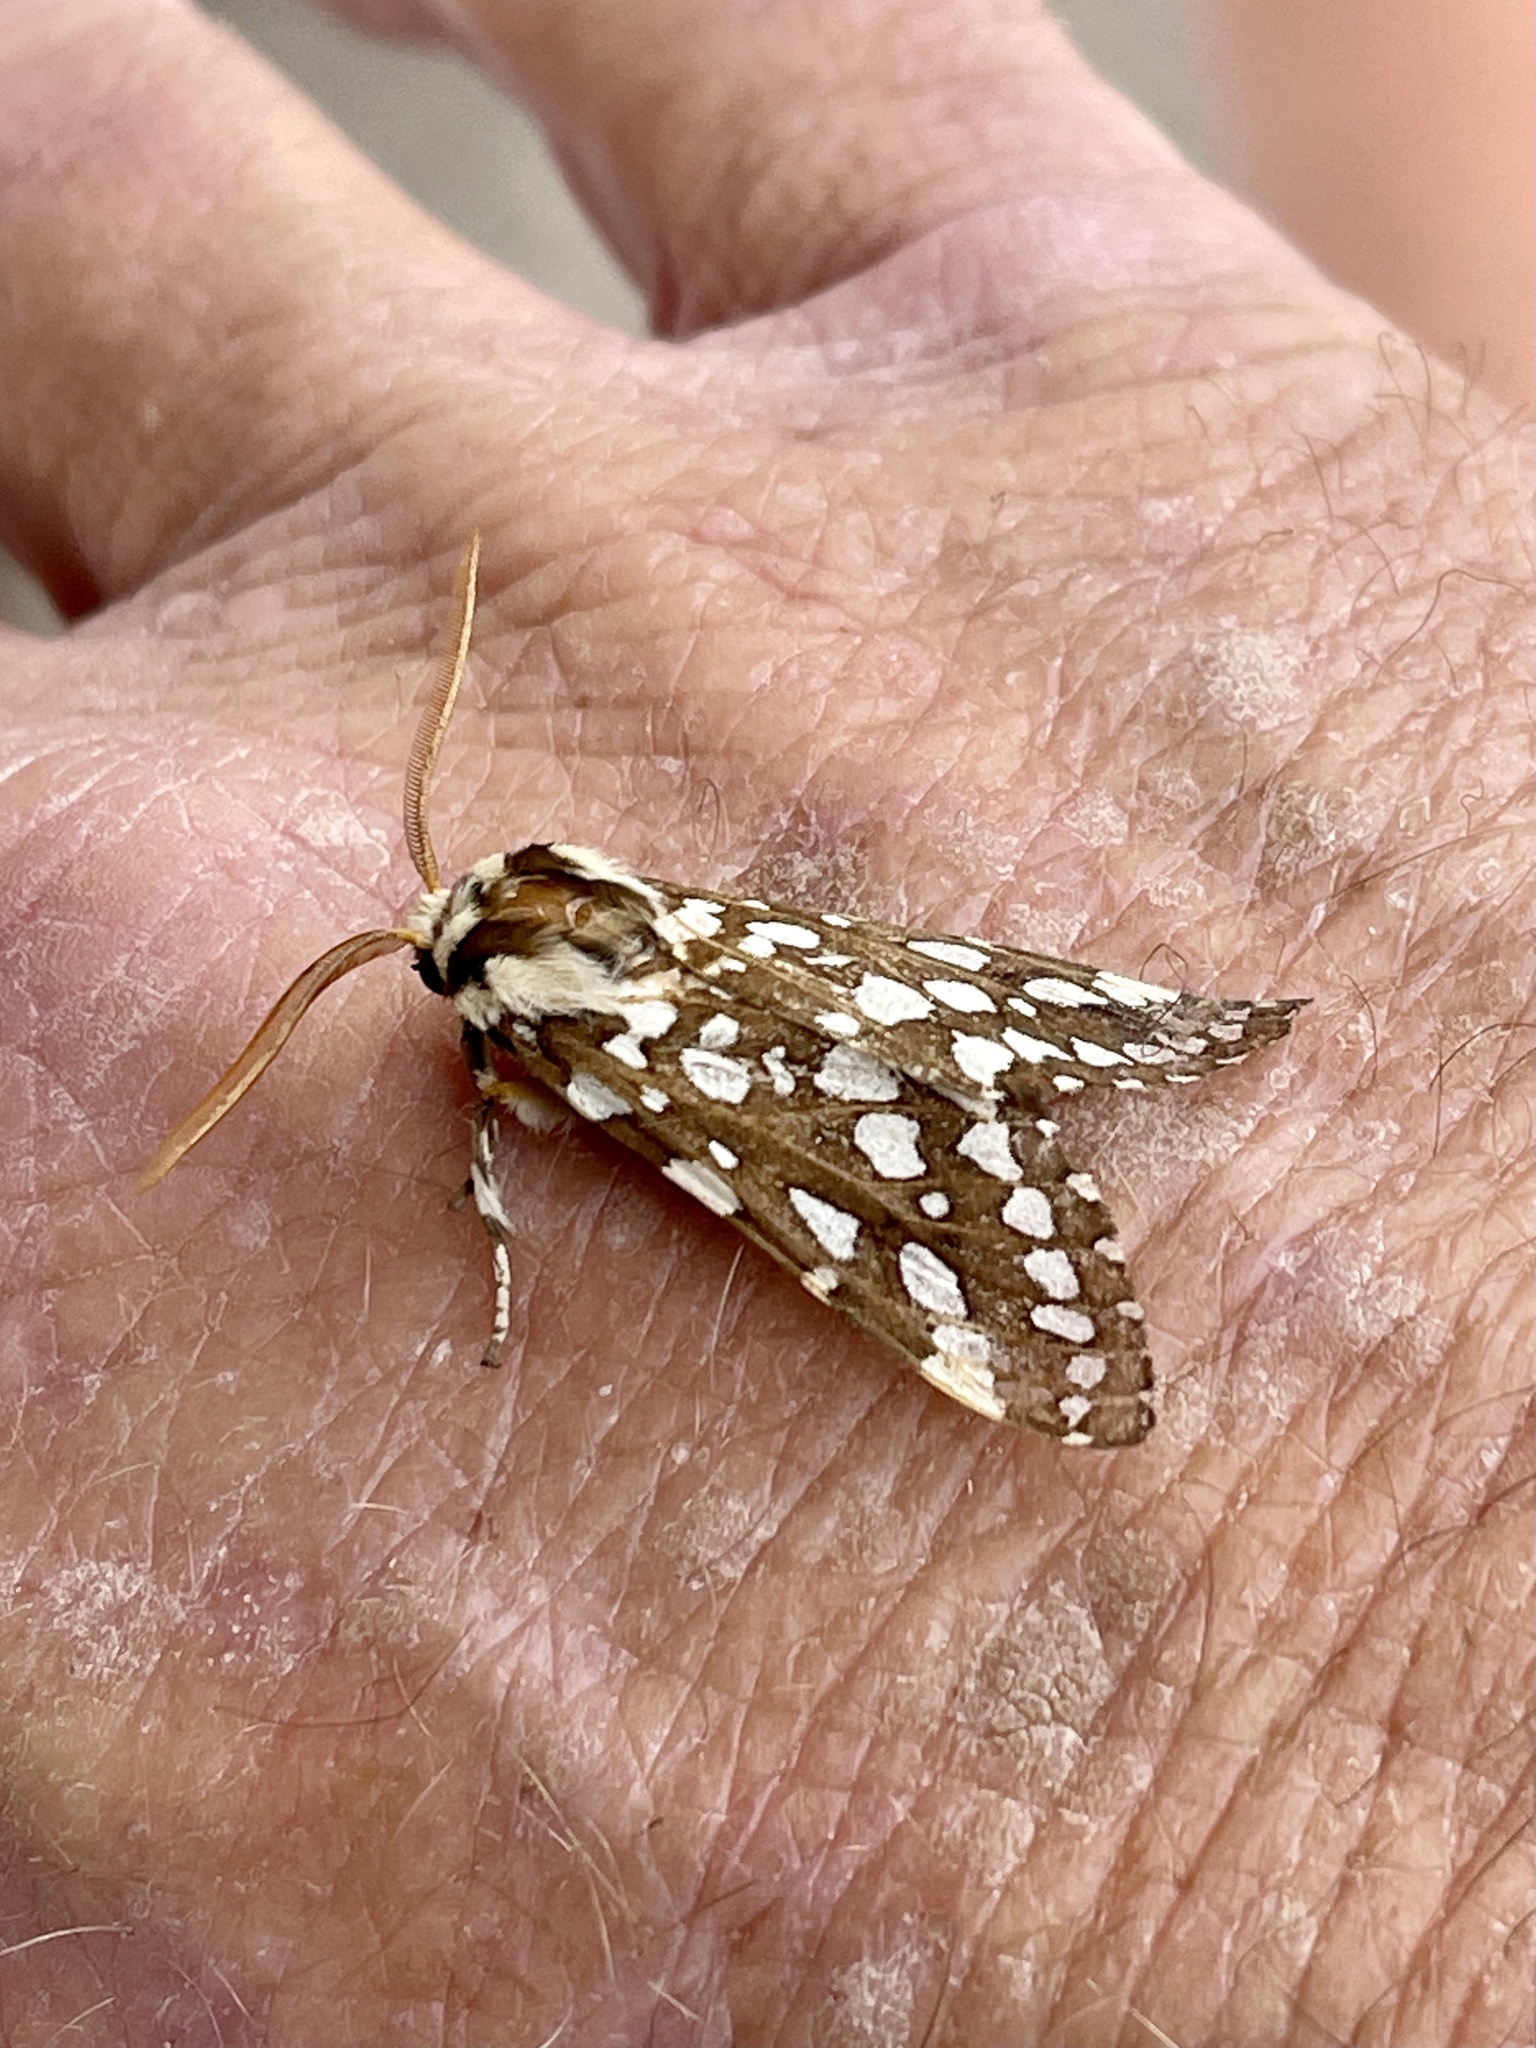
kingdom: Animalia
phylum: Arthropoda
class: Insecta
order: Lepidoptera
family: Erebidae
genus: Lophocampa
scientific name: Lophocampa ingens
